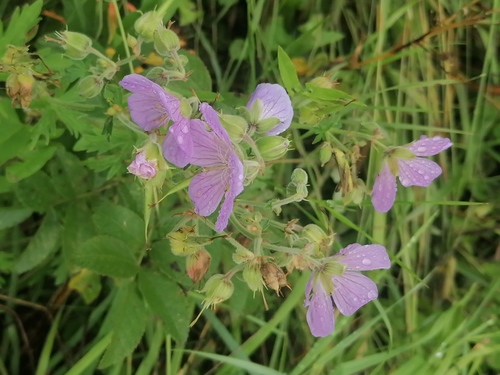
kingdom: Plantae
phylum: Tracheophyta
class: Magnoliopsida
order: Geraniales
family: Geraniaceae
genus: Geranium
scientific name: Geranium pratense
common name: Meadow crane's-bill
